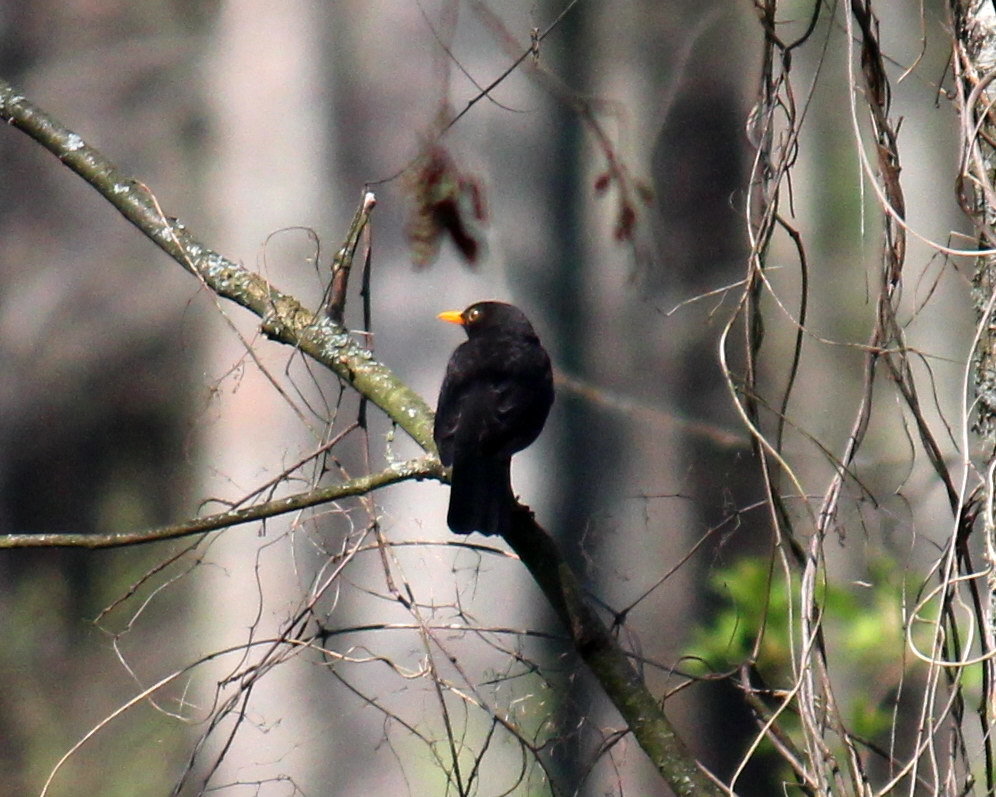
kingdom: Animalia
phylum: Chordata
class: Aves
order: Passeriformes
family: Turdidae
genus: Turdus
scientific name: Turdus merula
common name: Common blackbird
